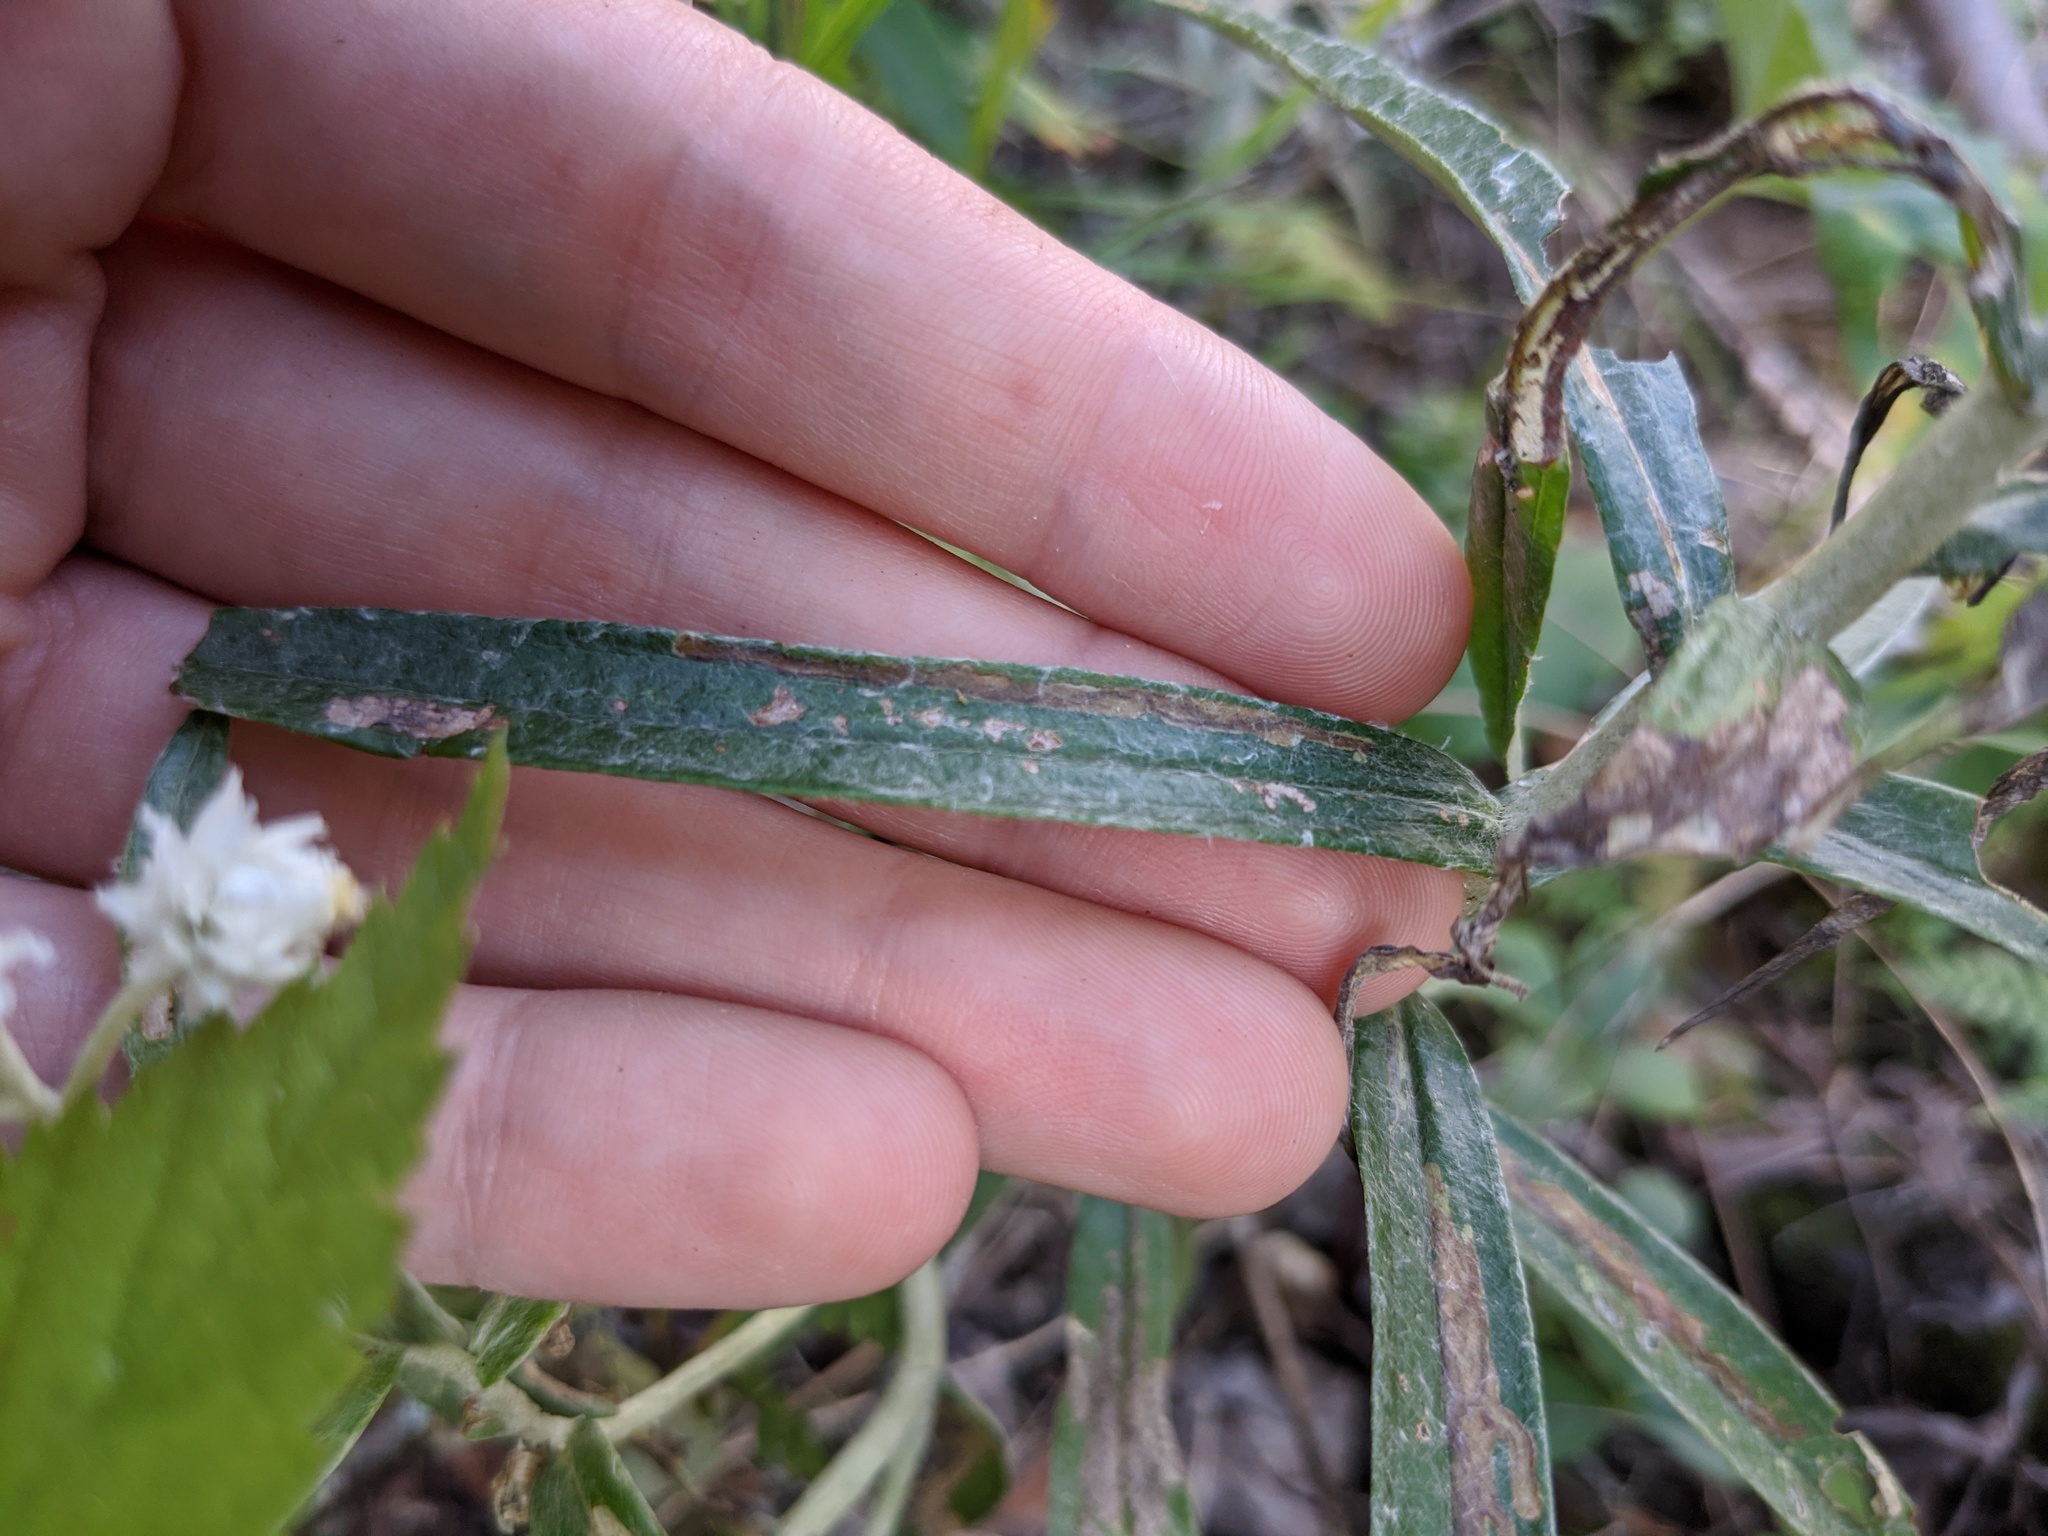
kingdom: Plantae
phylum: Tracheophyta
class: Magnoliopsida
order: Asterales
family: Asteraceae
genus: Anaphalis
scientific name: Anaphalis margaritacea
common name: Pearly everlasting
